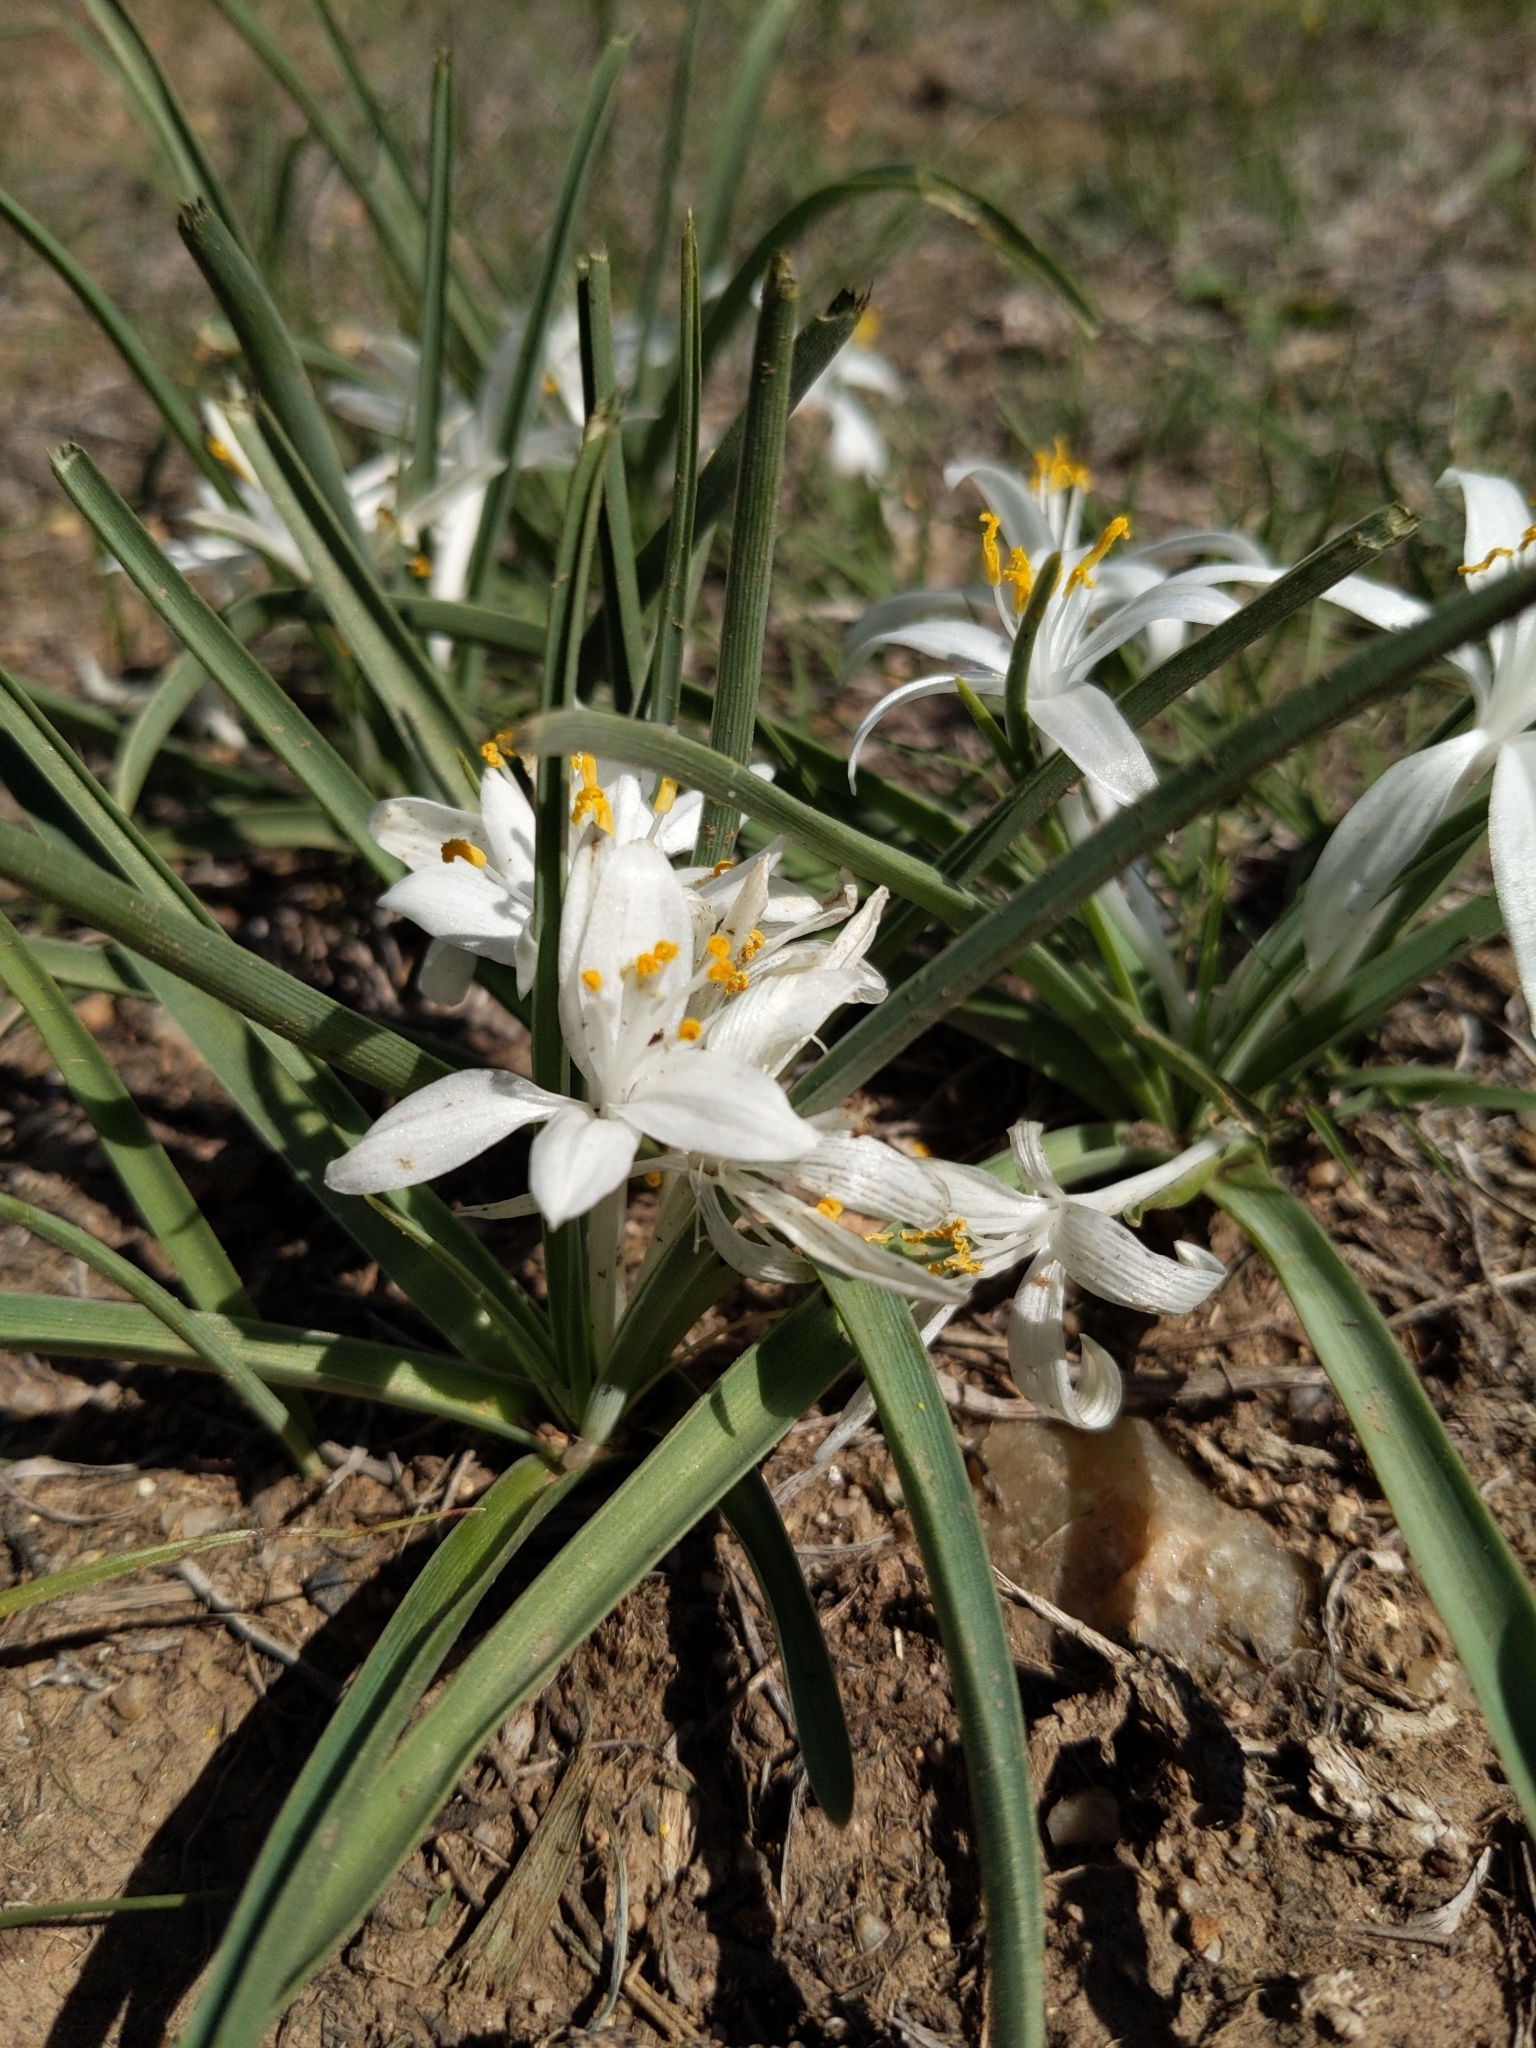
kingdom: Plantae
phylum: Tracheophyta
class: Liliopsida
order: Asparagales
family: Asparagaceae
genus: Leucocrinum
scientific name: Leucocrinum montanum
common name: Mountain-lily
